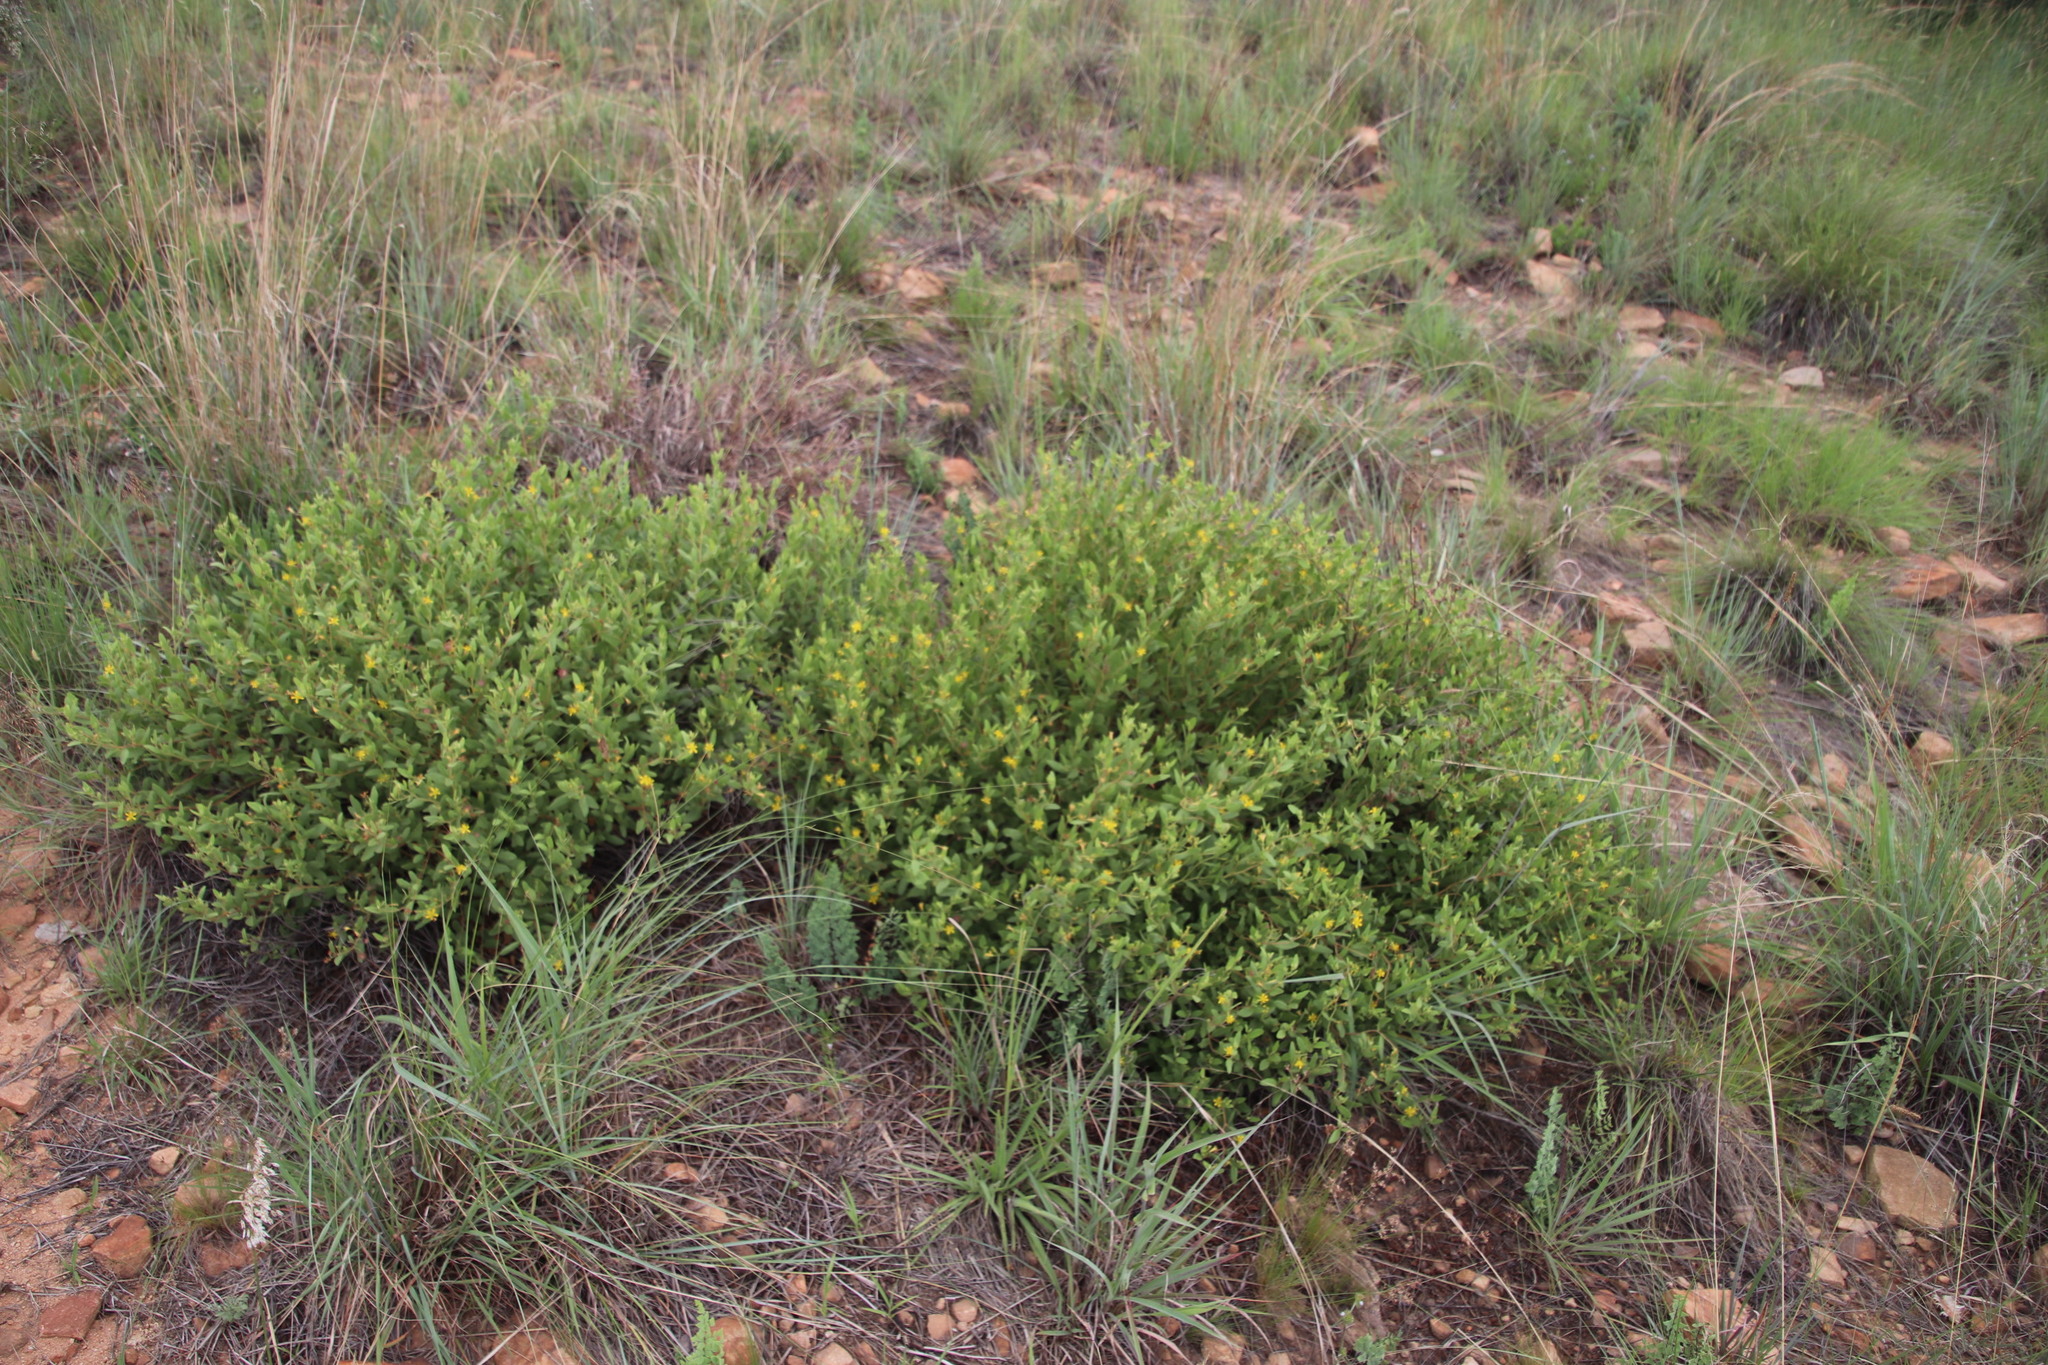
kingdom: Plantae
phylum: Tracheophyta
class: Magnoliopsida
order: Malvales
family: Malvaceae
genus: Triumfetta
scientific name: Triumfetta sonderi
